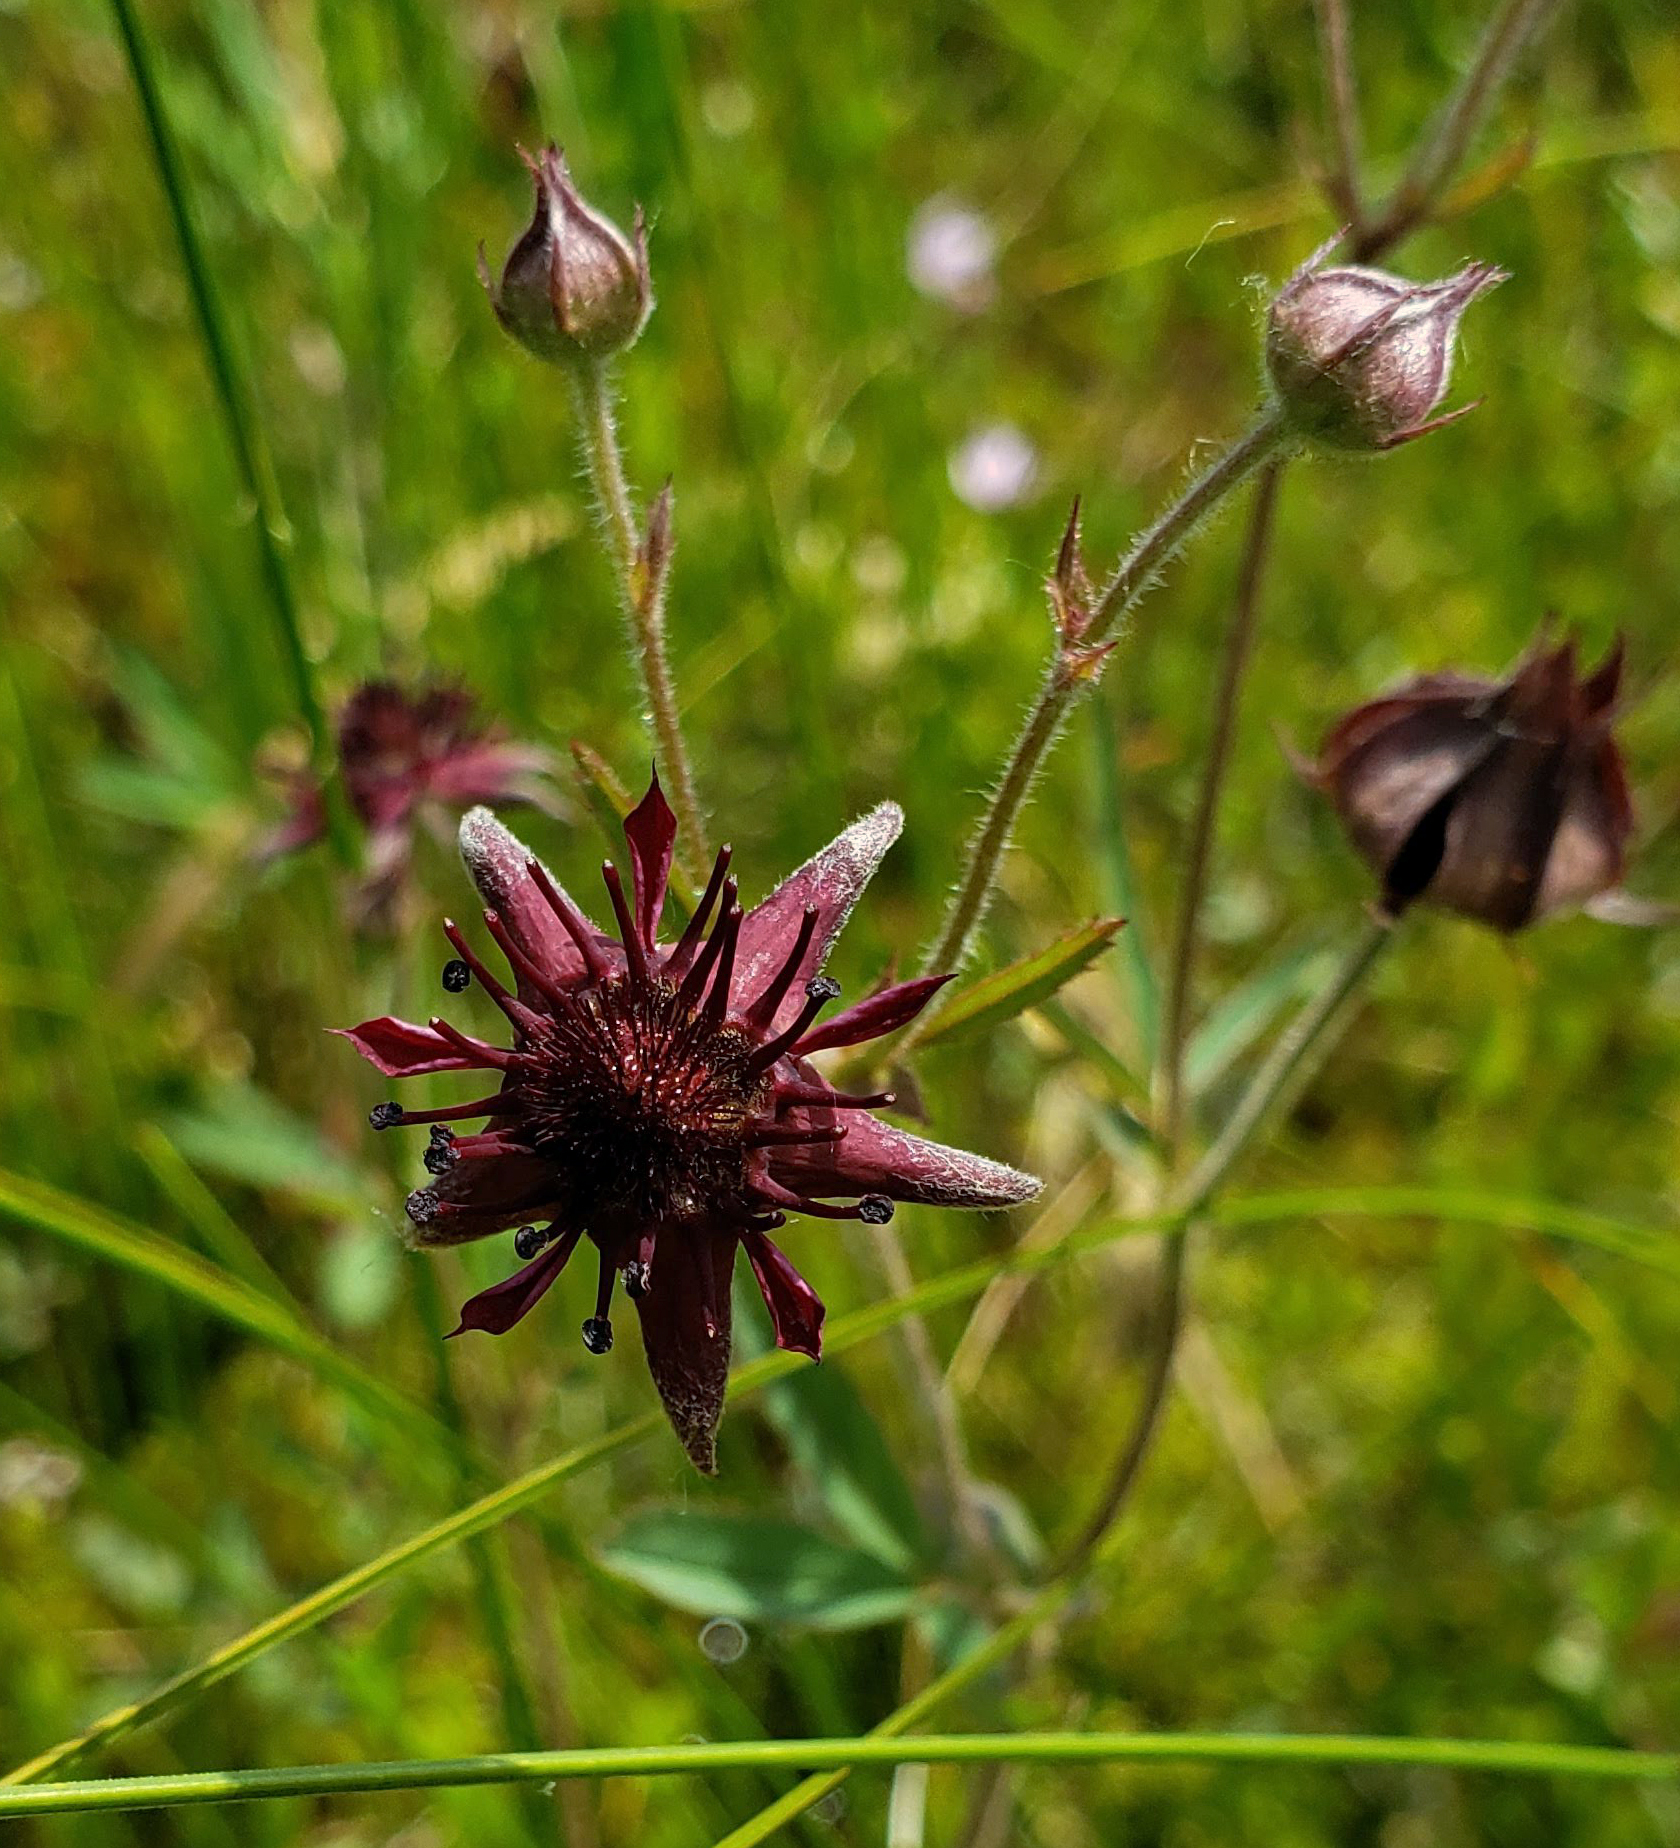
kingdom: Plantae
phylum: Tracheophyta
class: Magnoliopsida
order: Rosales
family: Rosaceae
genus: Comarum
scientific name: Comarum palustre
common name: Marsh cinquefoil
